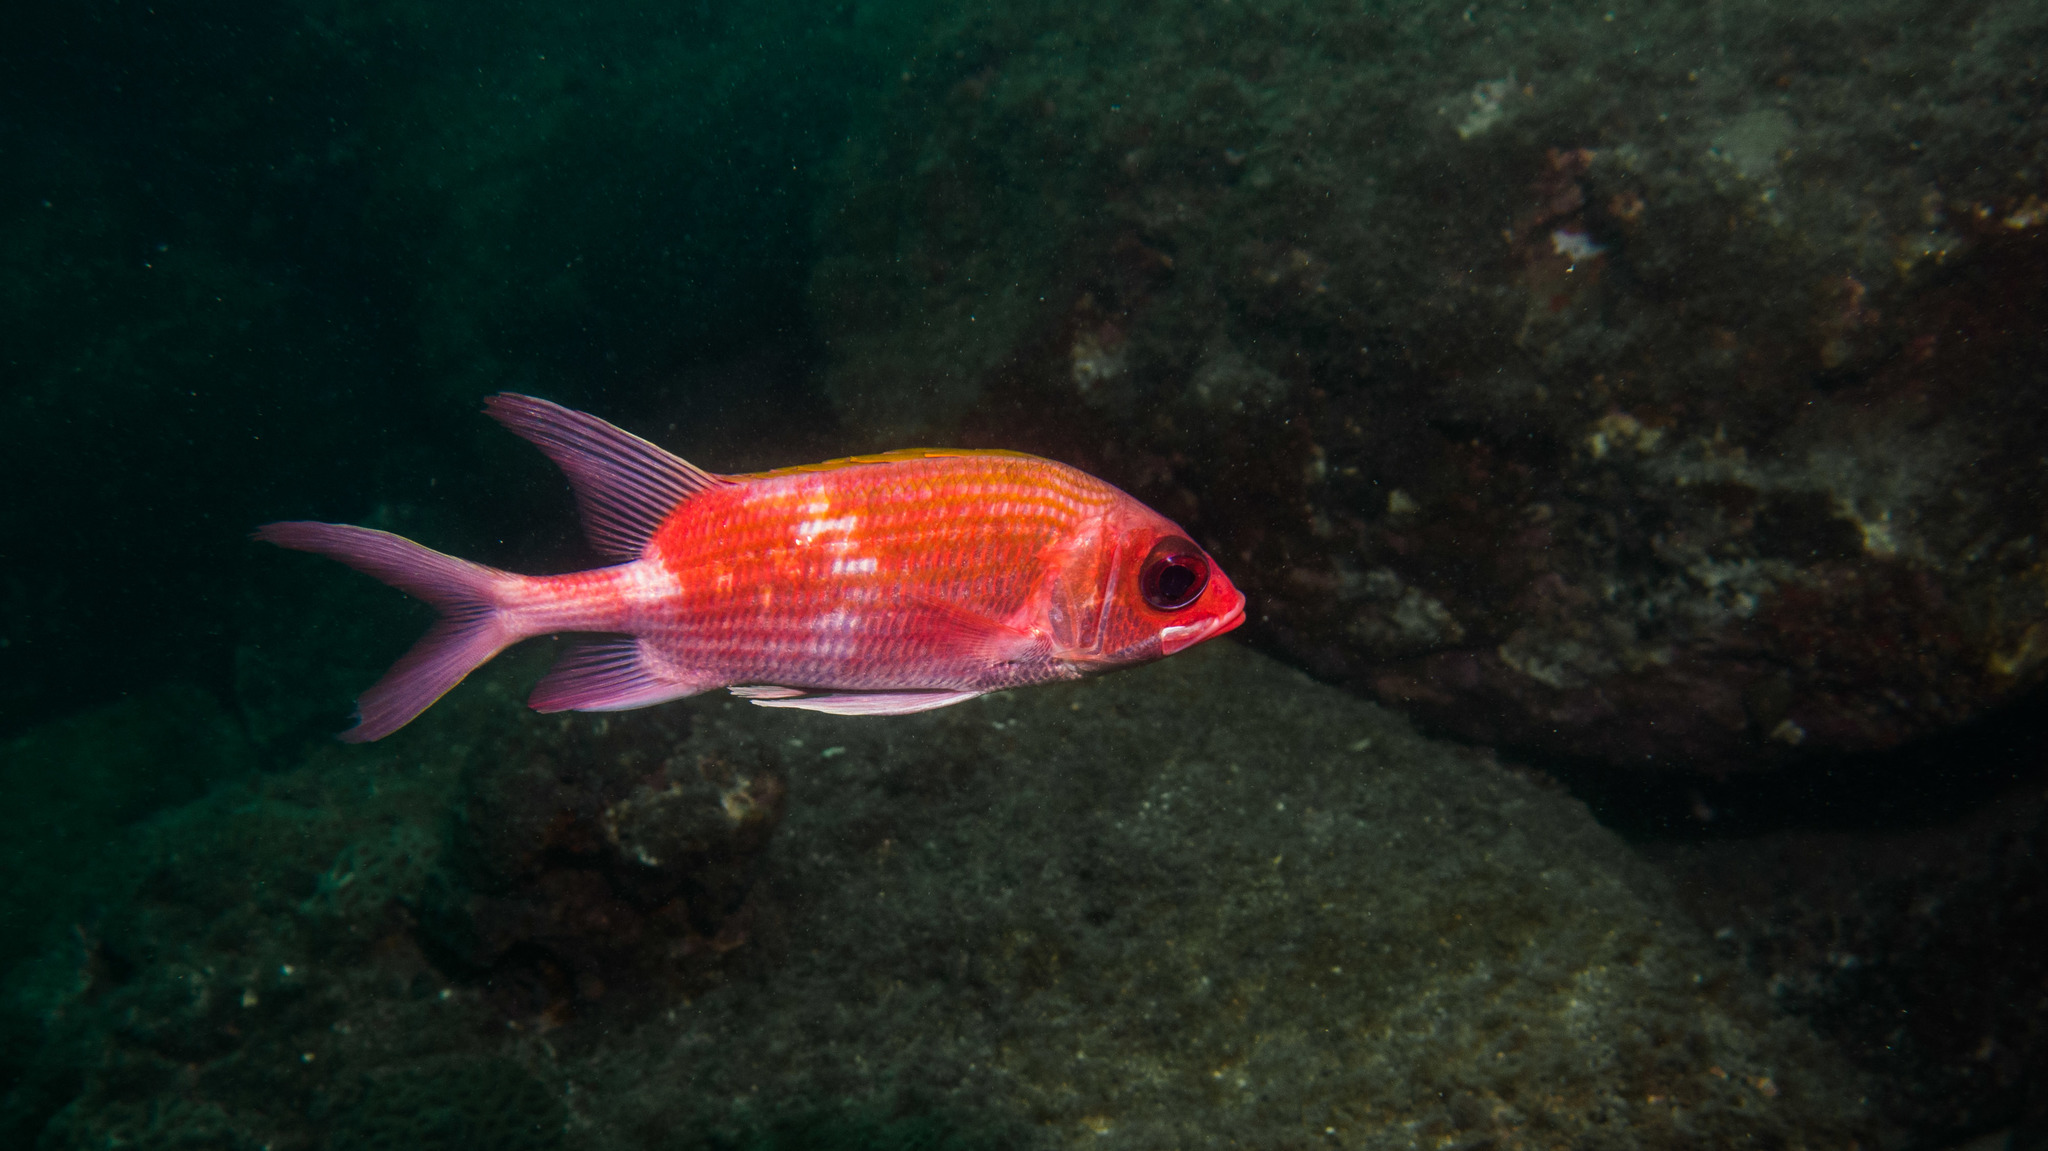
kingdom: Animalia
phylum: Chordata
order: Beryciformes
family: Holocentridae
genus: Holocentrus
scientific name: Holocentrus adscensionis
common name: Squirrelfish
